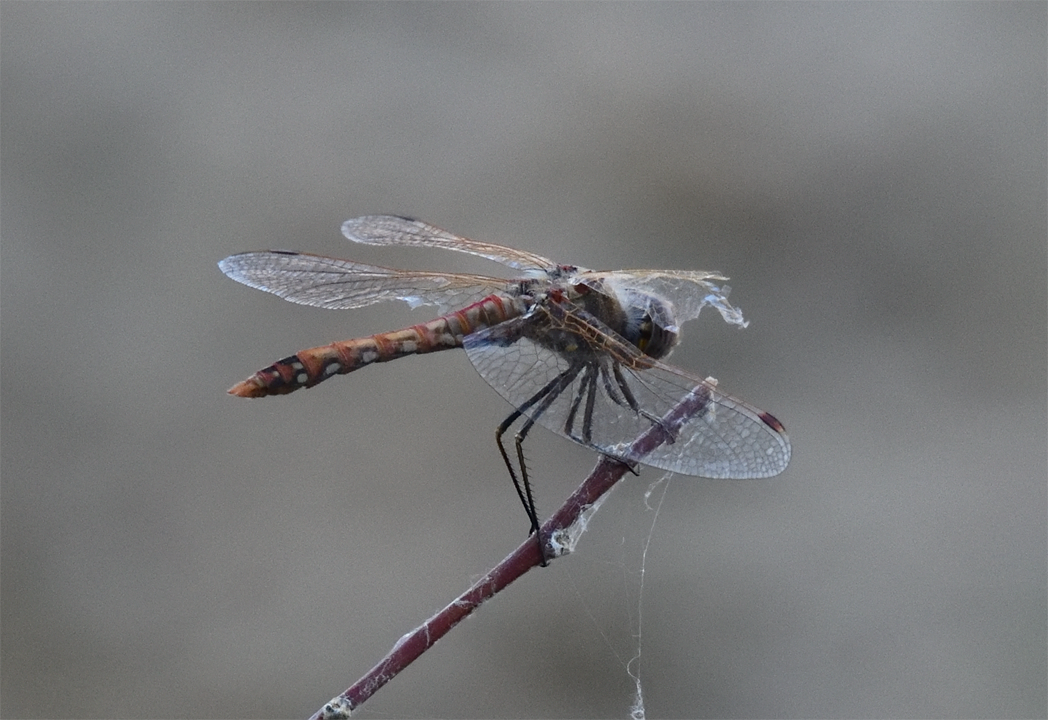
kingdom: Animalia
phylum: Arthropoda
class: Insecta
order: Odonata
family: Libellulidae
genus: Sympetrum
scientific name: Sympetrum corruptum
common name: Variegated meadowhawk
